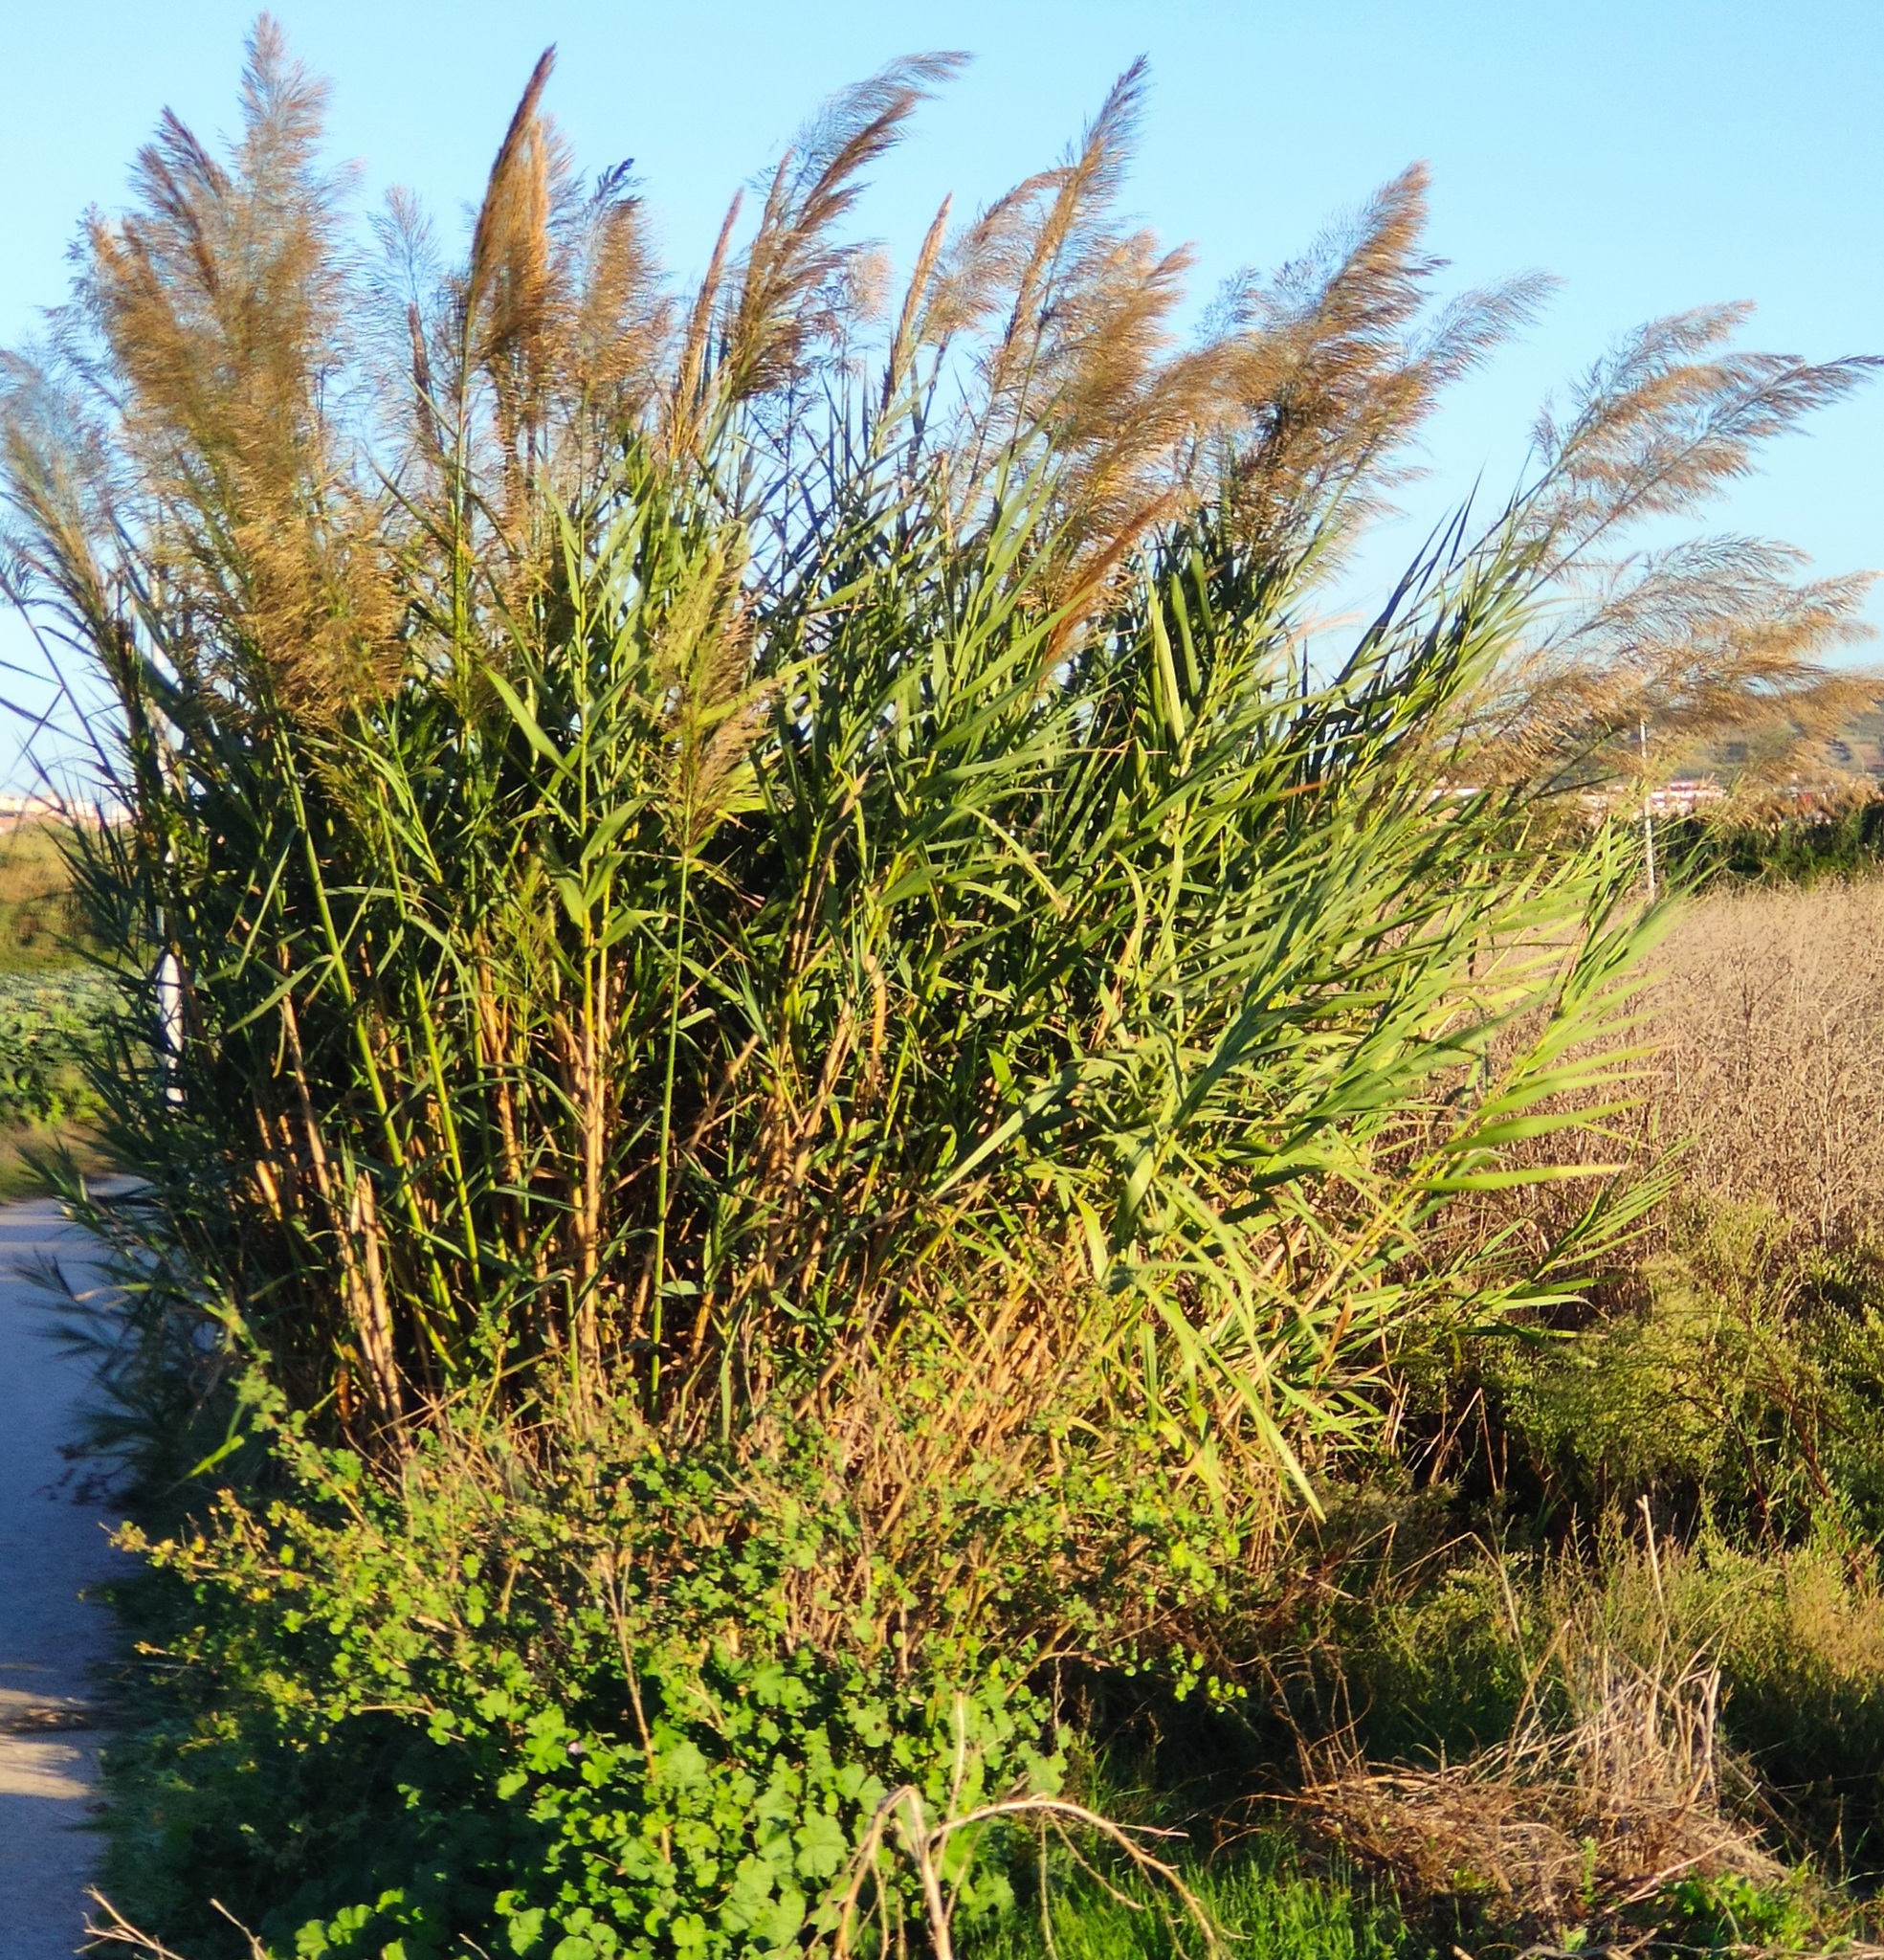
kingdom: Plantae
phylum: Tracheophyta
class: Liliopsida
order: Poales
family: Poaceae
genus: Arundo
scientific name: Arundo micrantha
